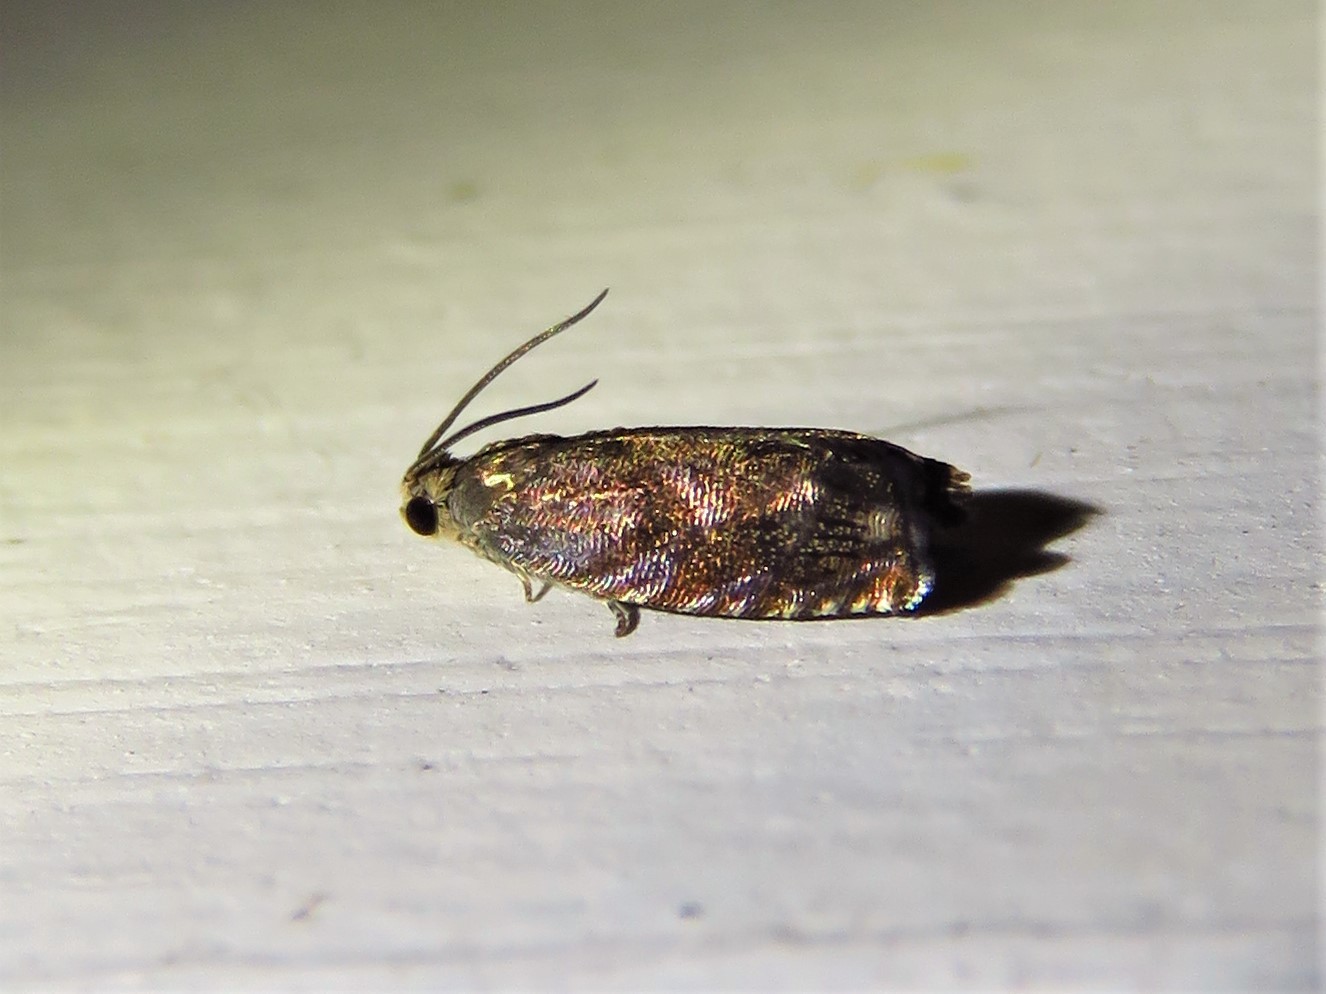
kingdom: Animalia
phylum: Arthropoda
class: Insecta
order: Lepidoptera
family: Tortricidae
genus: Cydia
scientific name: Cydia caryana
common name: Hickory shuckworm moth
